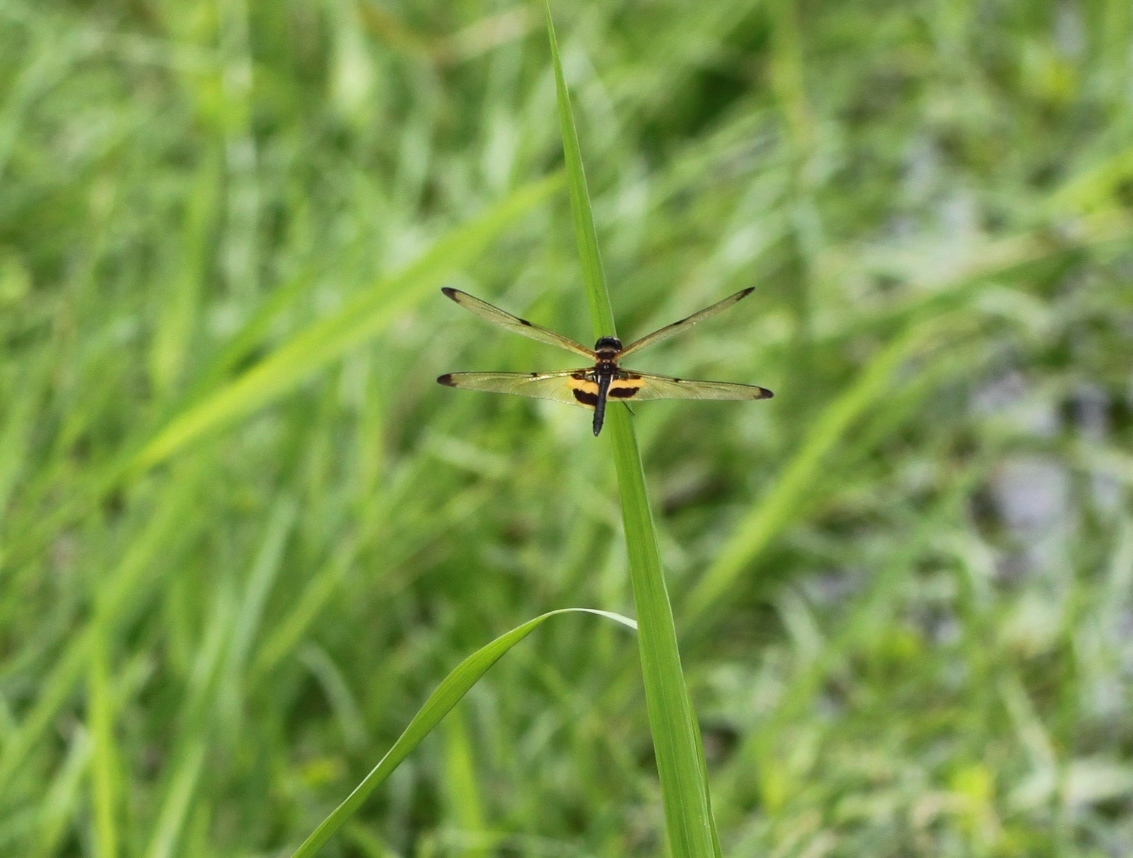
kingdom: Animalia
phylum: Arthropoda
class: Insecta
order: Odonata
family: Libellulidae
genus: Rhyothemis
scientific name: Rhyothemis phyllis
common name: Yellow-barred flutterer
